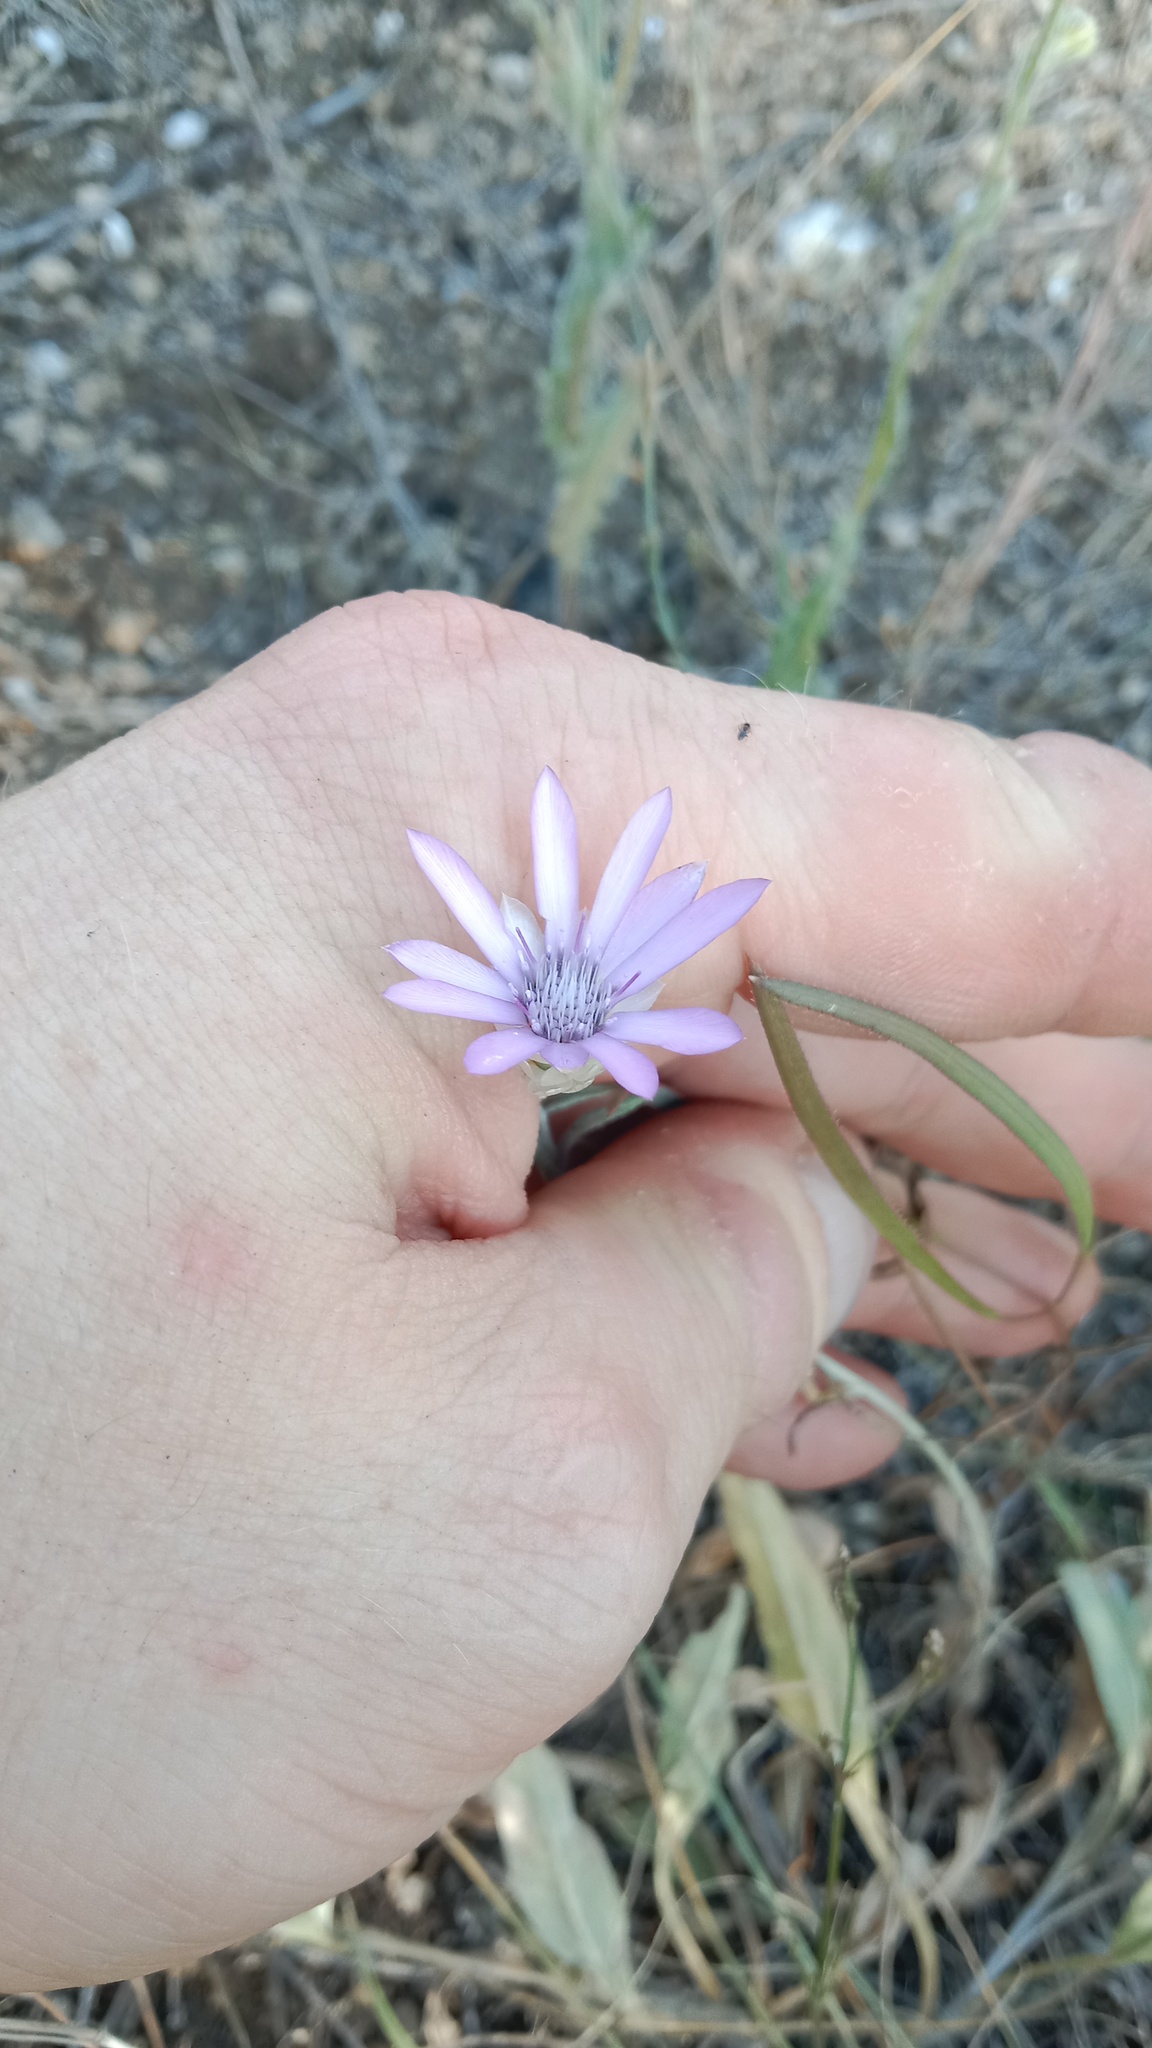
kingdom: Plantae
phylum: Tracheophyta
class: Magnoliopsida
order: Asterales
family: Asteraceae
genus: Xeranthemum
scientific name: Xeranthemum annuum
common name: Immortelle
